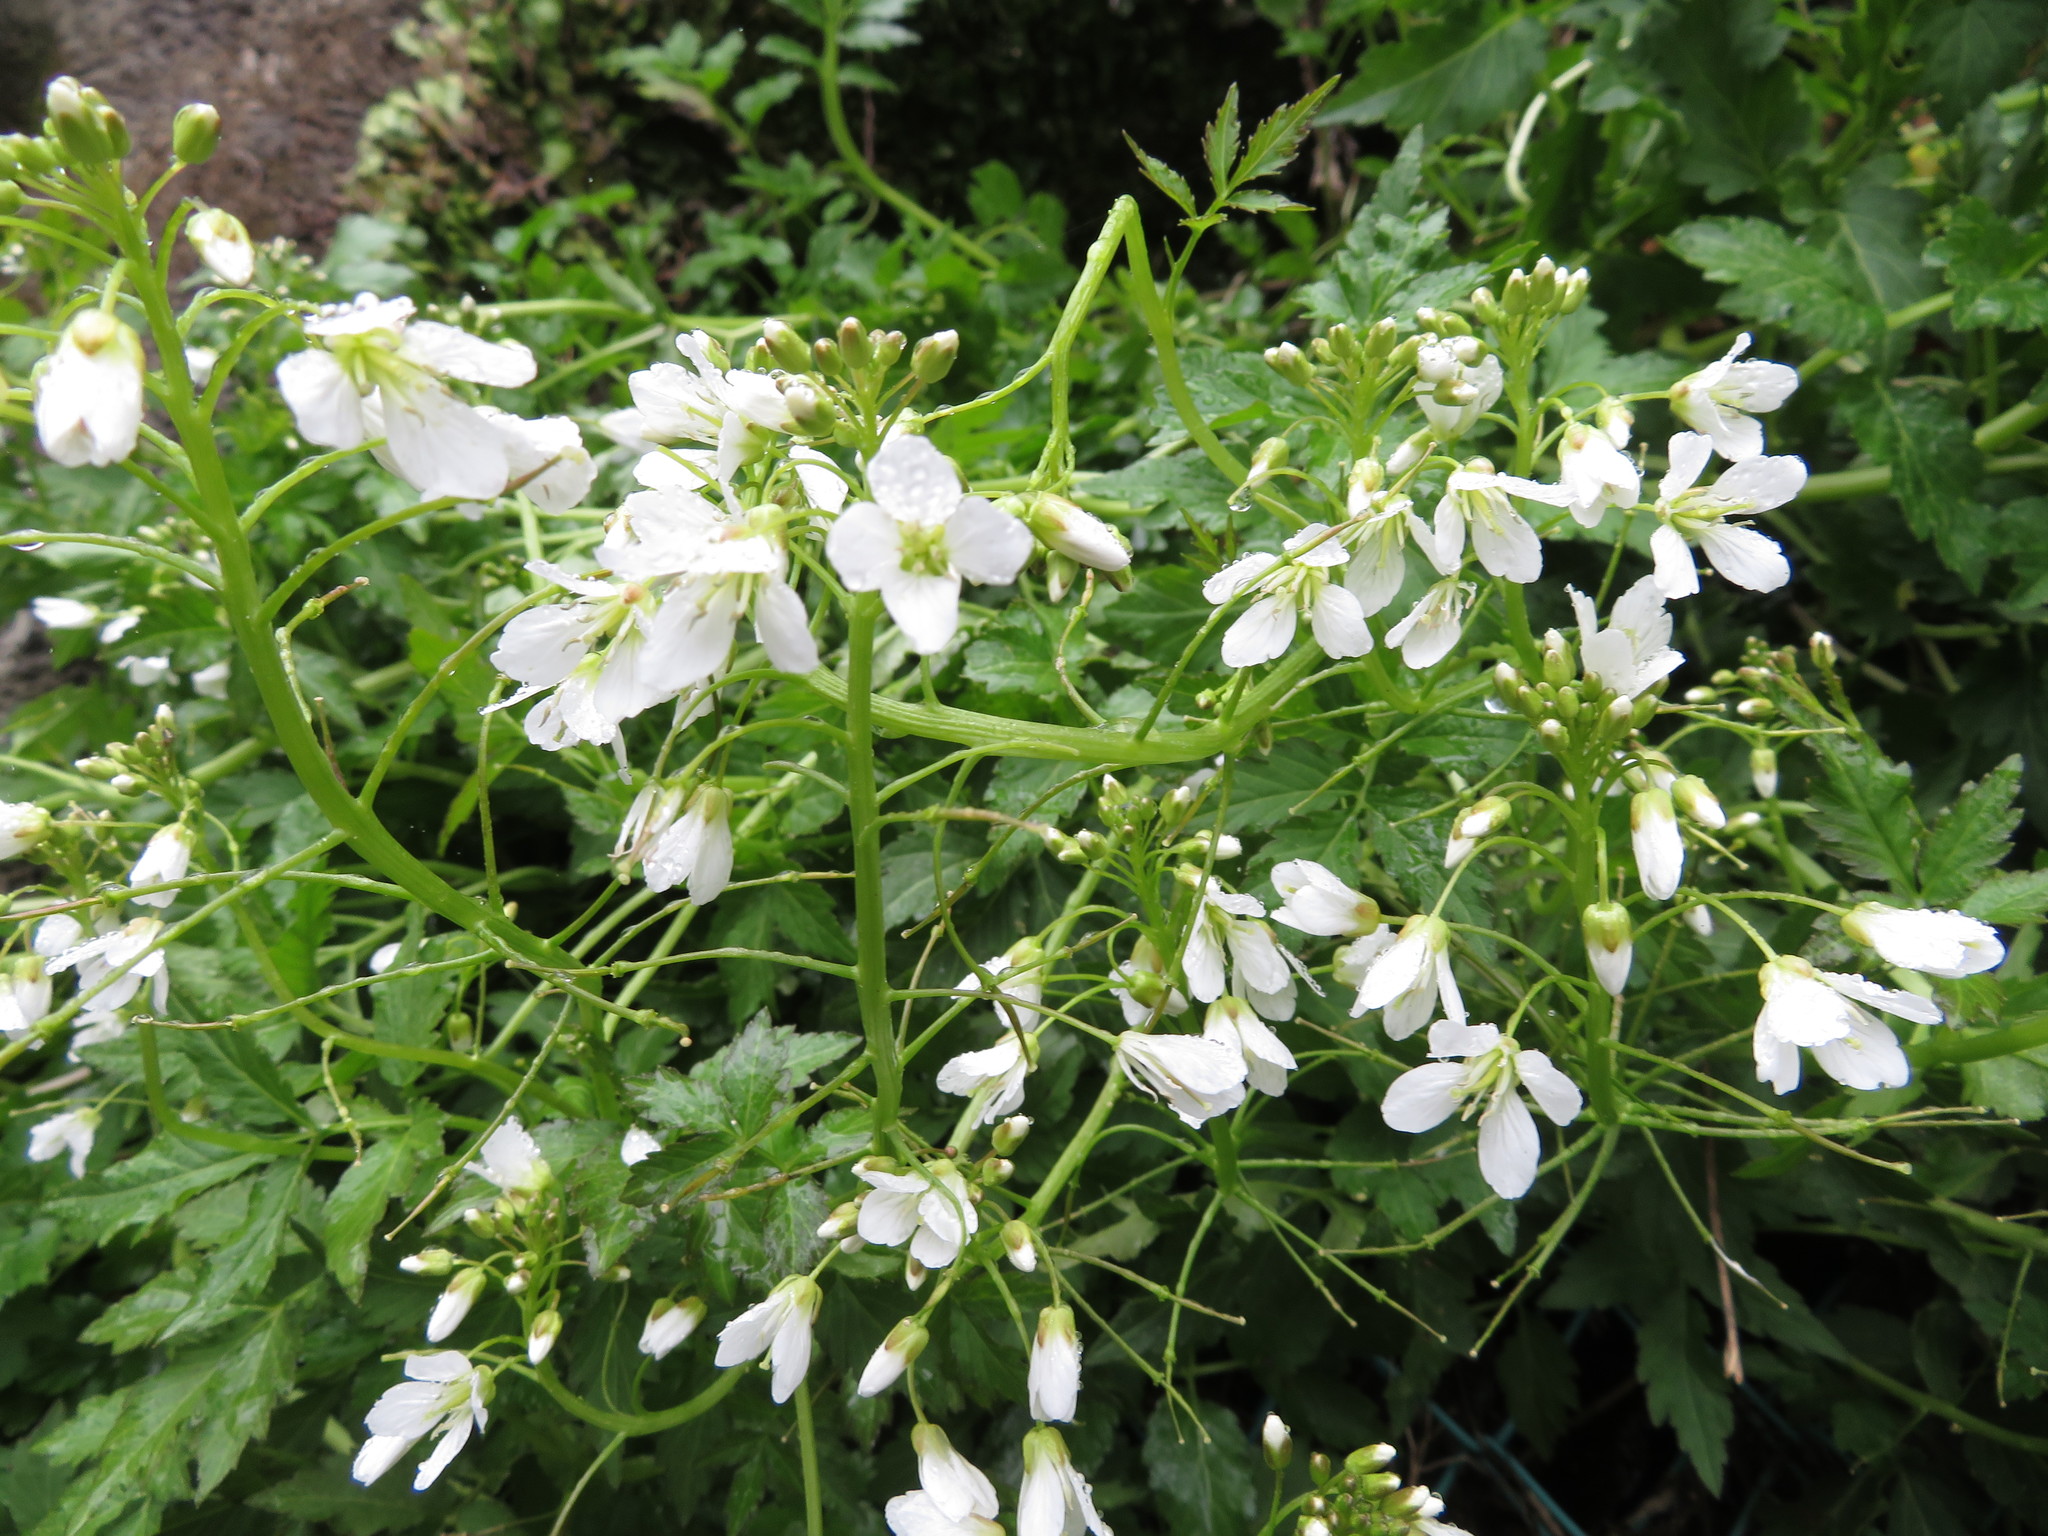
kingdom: Plantae
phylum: Tracheophyta
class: Magnoliopsida
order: Brassicales
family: Brassicaceae
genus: Cardamine
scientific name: Cardamine appendiculata
